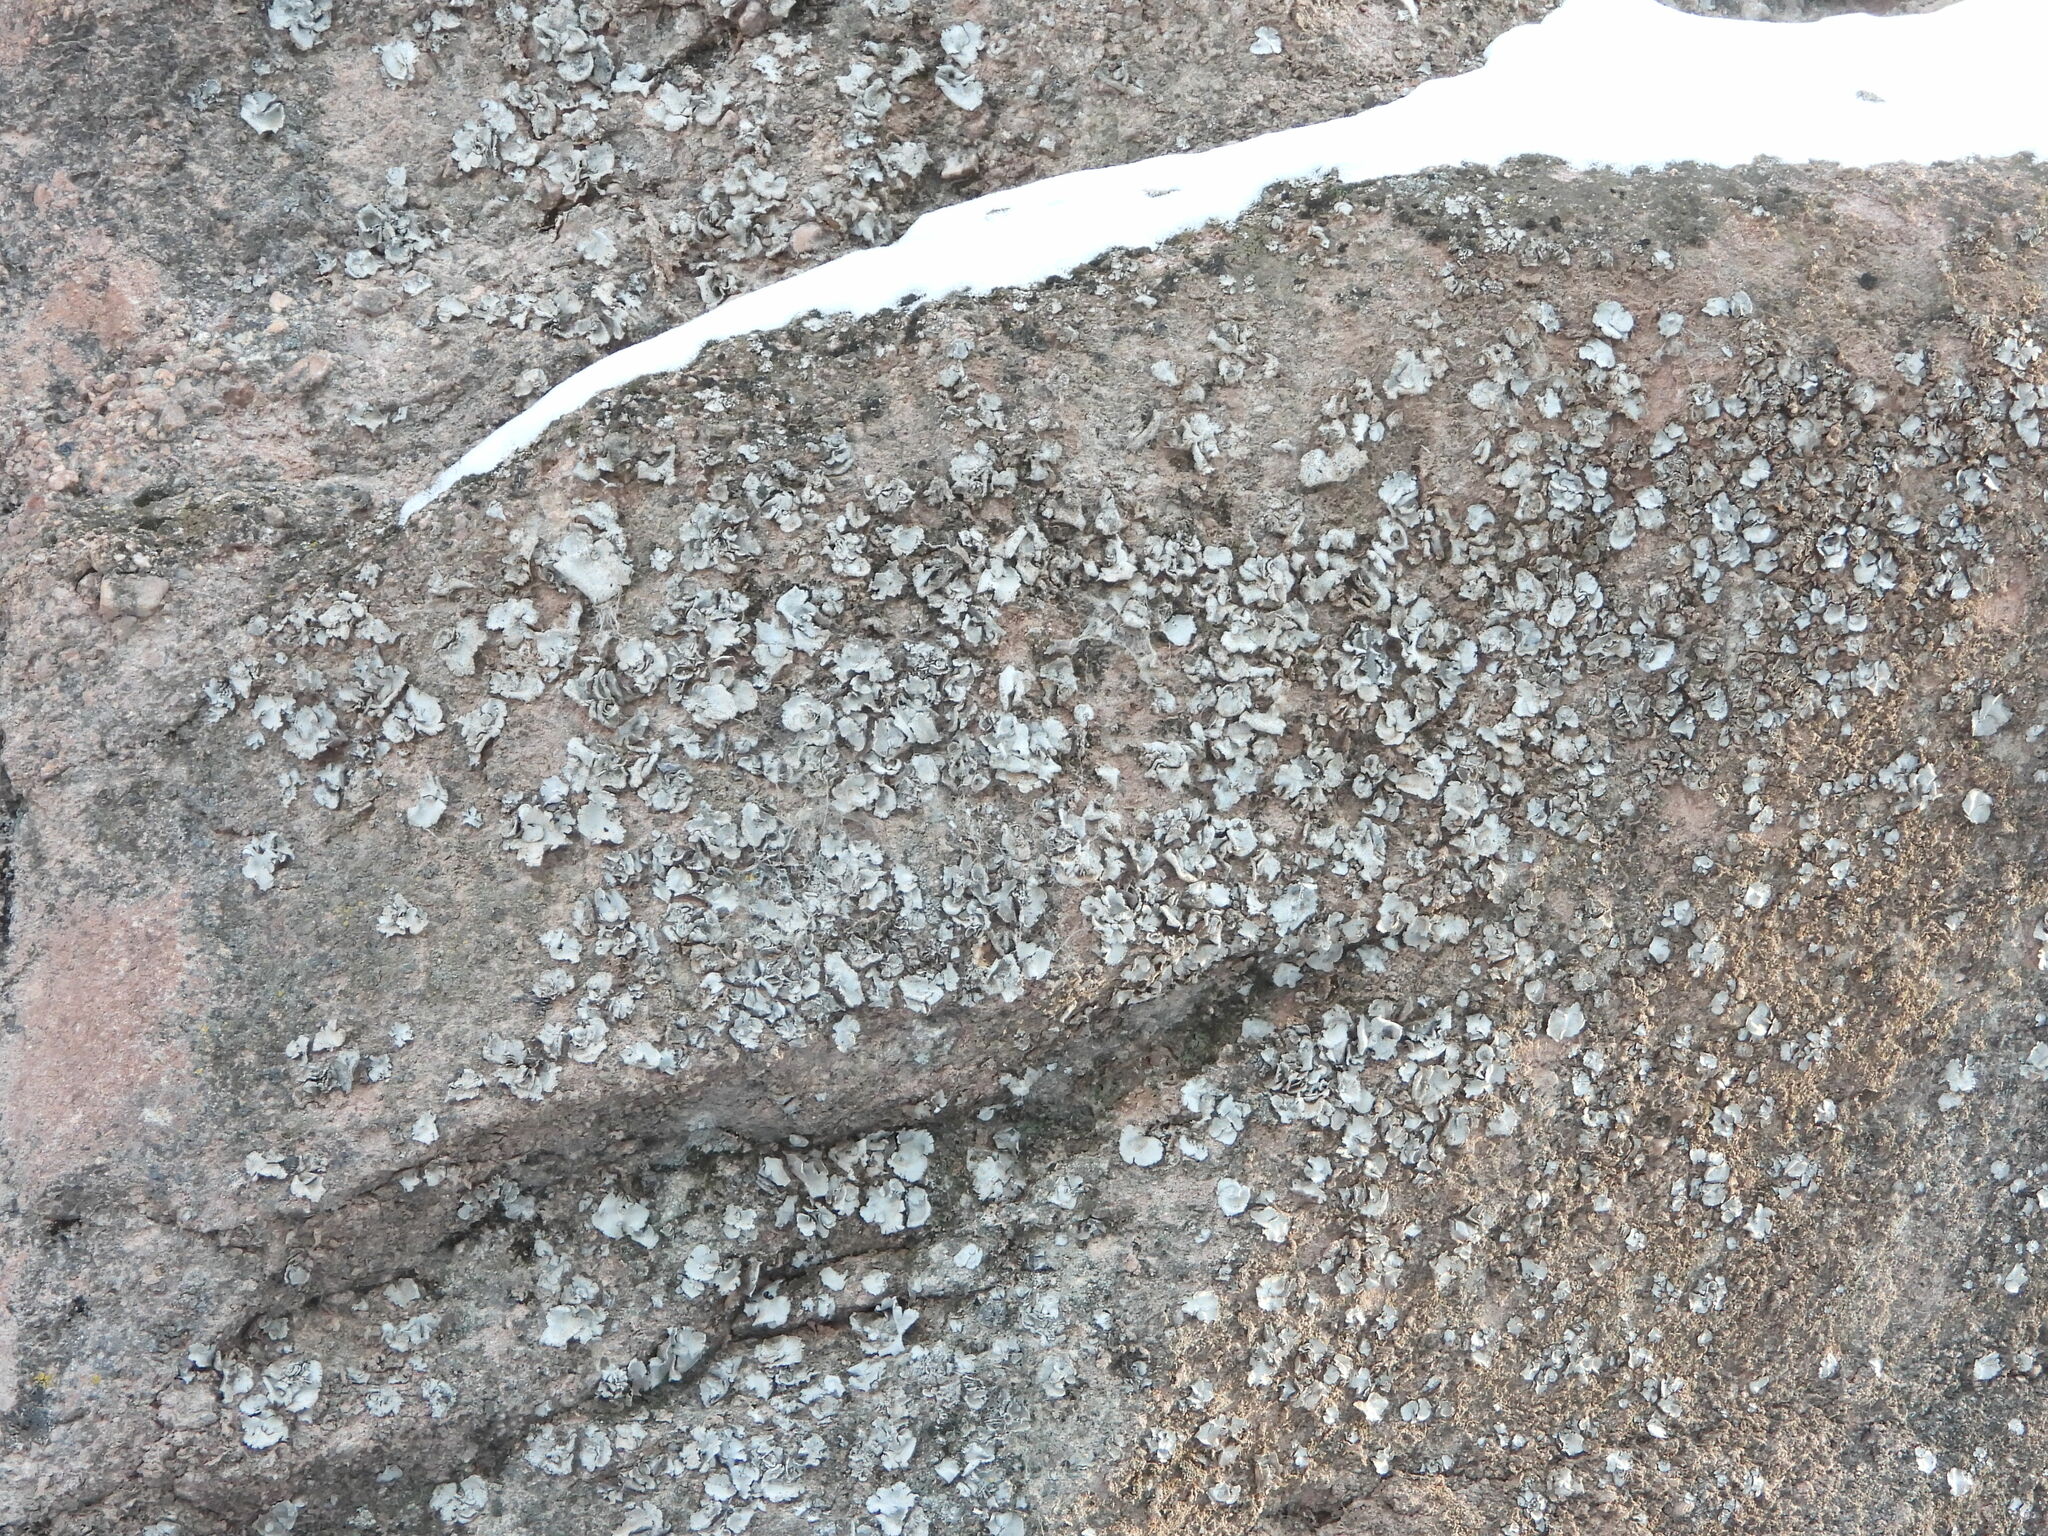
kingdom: Fungi
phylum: Ascomycota
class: Lecanoromycetes
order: Umbilicariales
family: Umbilicariaceae
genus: Umbilicaria
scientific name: Umbilicaria americana
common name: Frosted rock tripe
